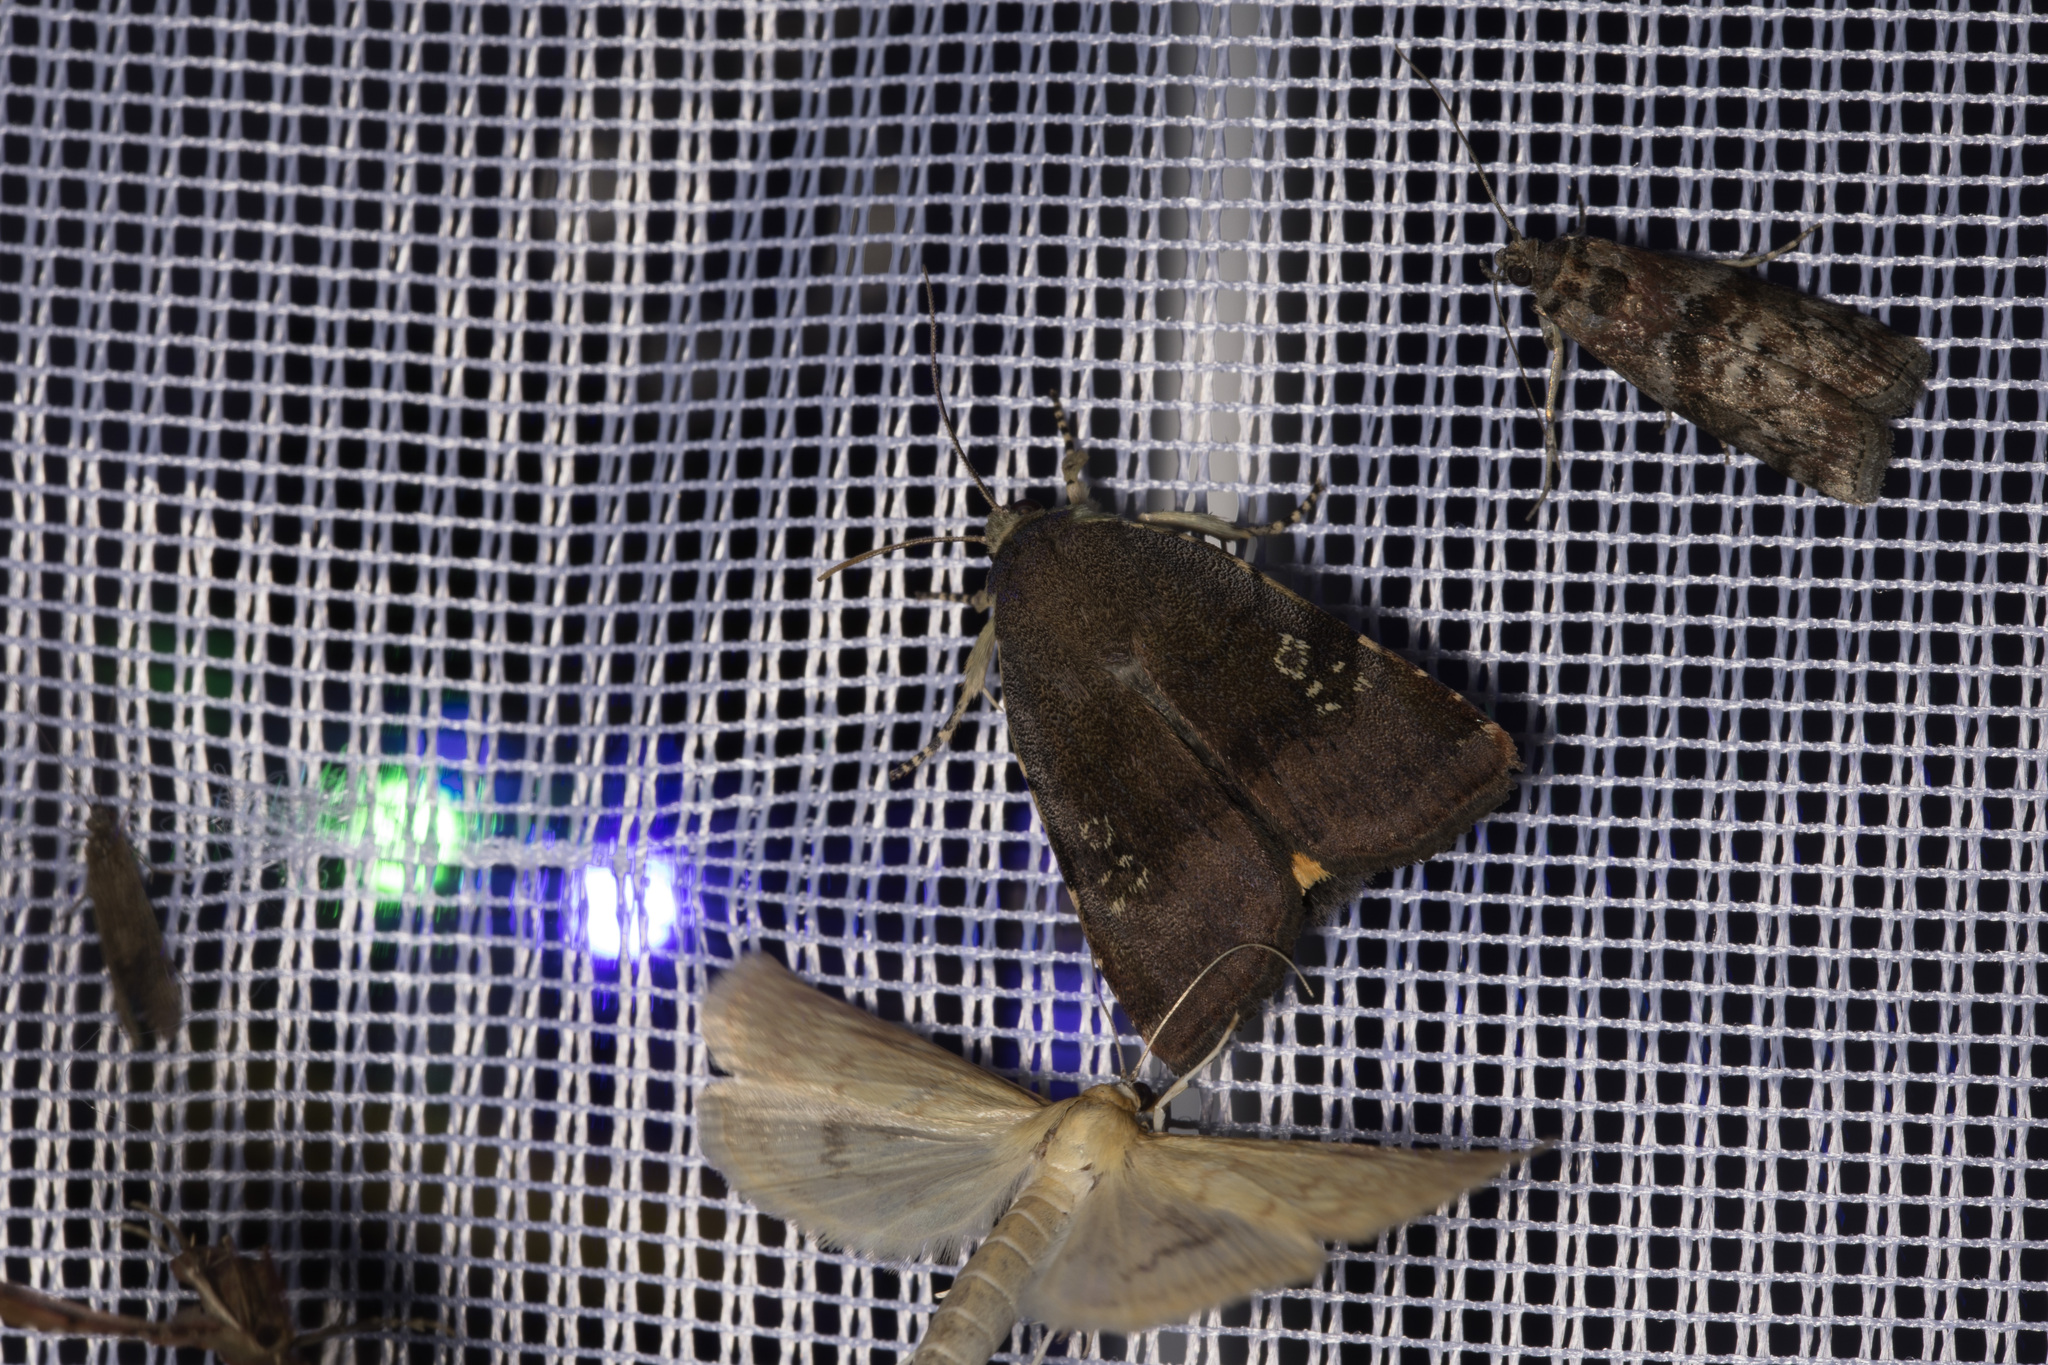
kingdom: Animalia
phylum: Arthropoda
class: Insecta
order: Lepidoptera
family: Pyralidae
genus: Phycita
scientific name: Phycita roborella
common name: Dotted oak knot-horn
